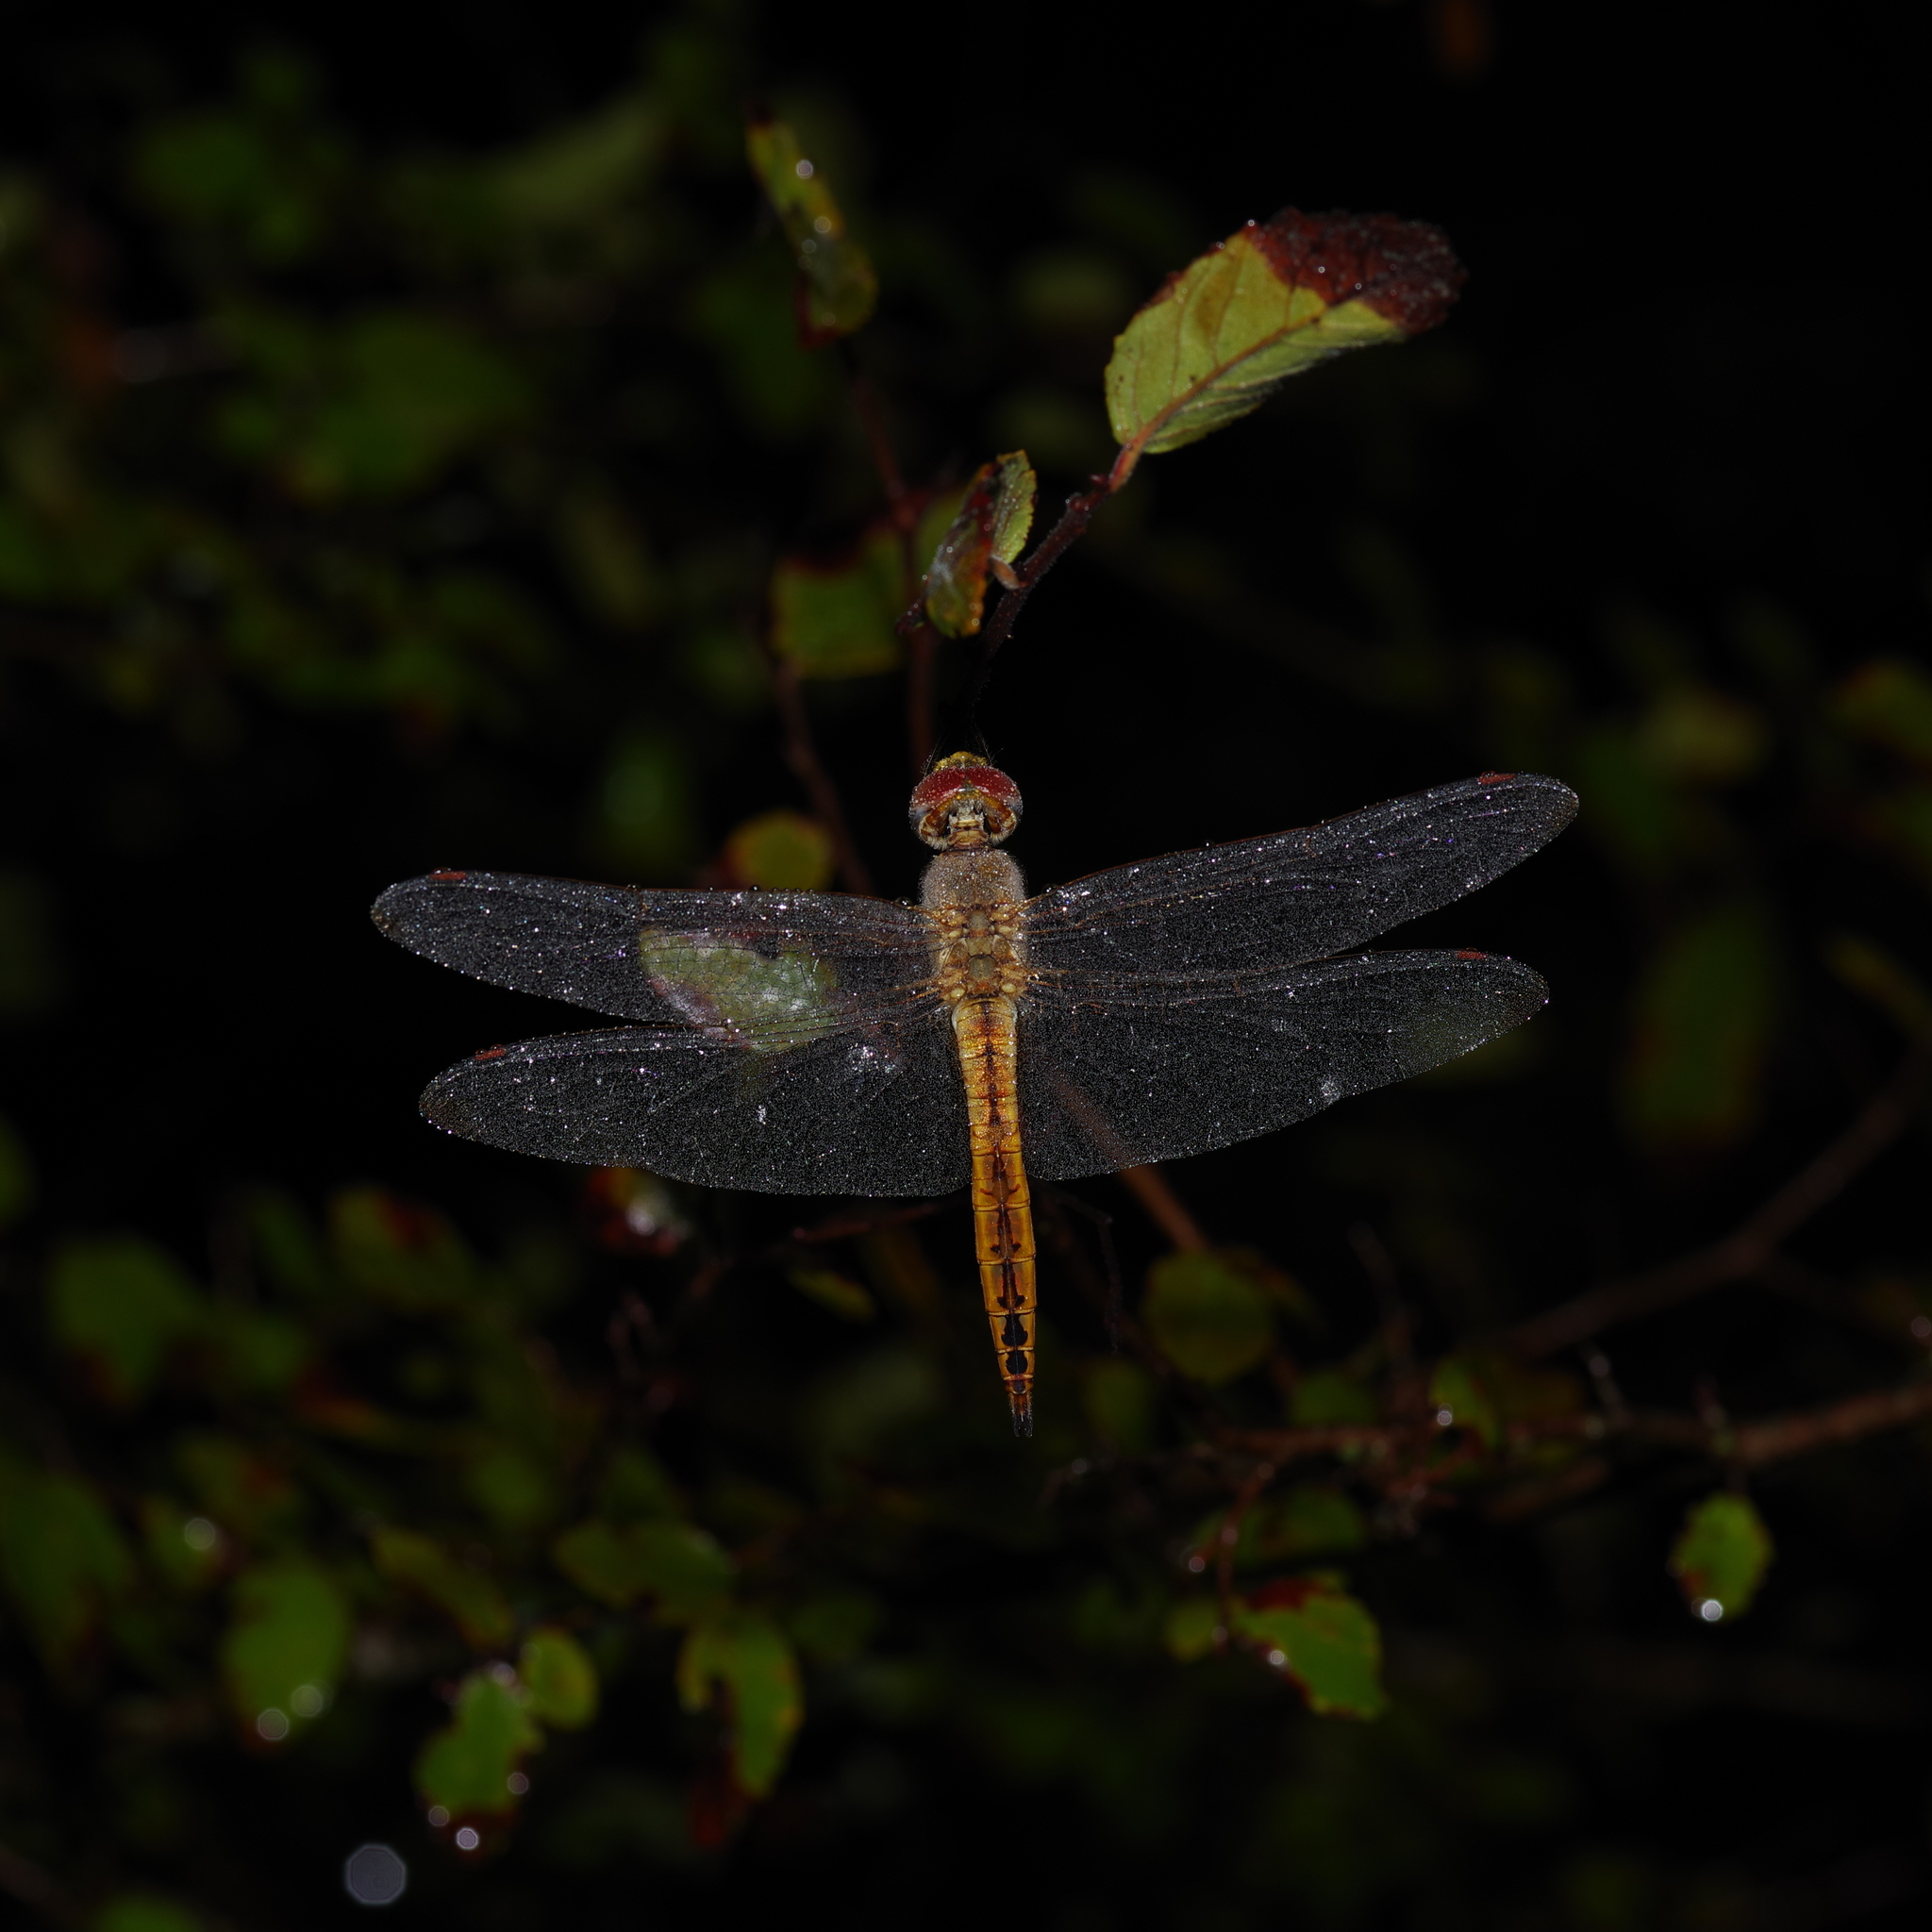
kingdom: Animalia
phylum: Arthropoda
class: Insecta
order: Odonata
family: Libellulidae
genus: Pantala
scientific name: Pantala flavescens
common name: Wandering glider
